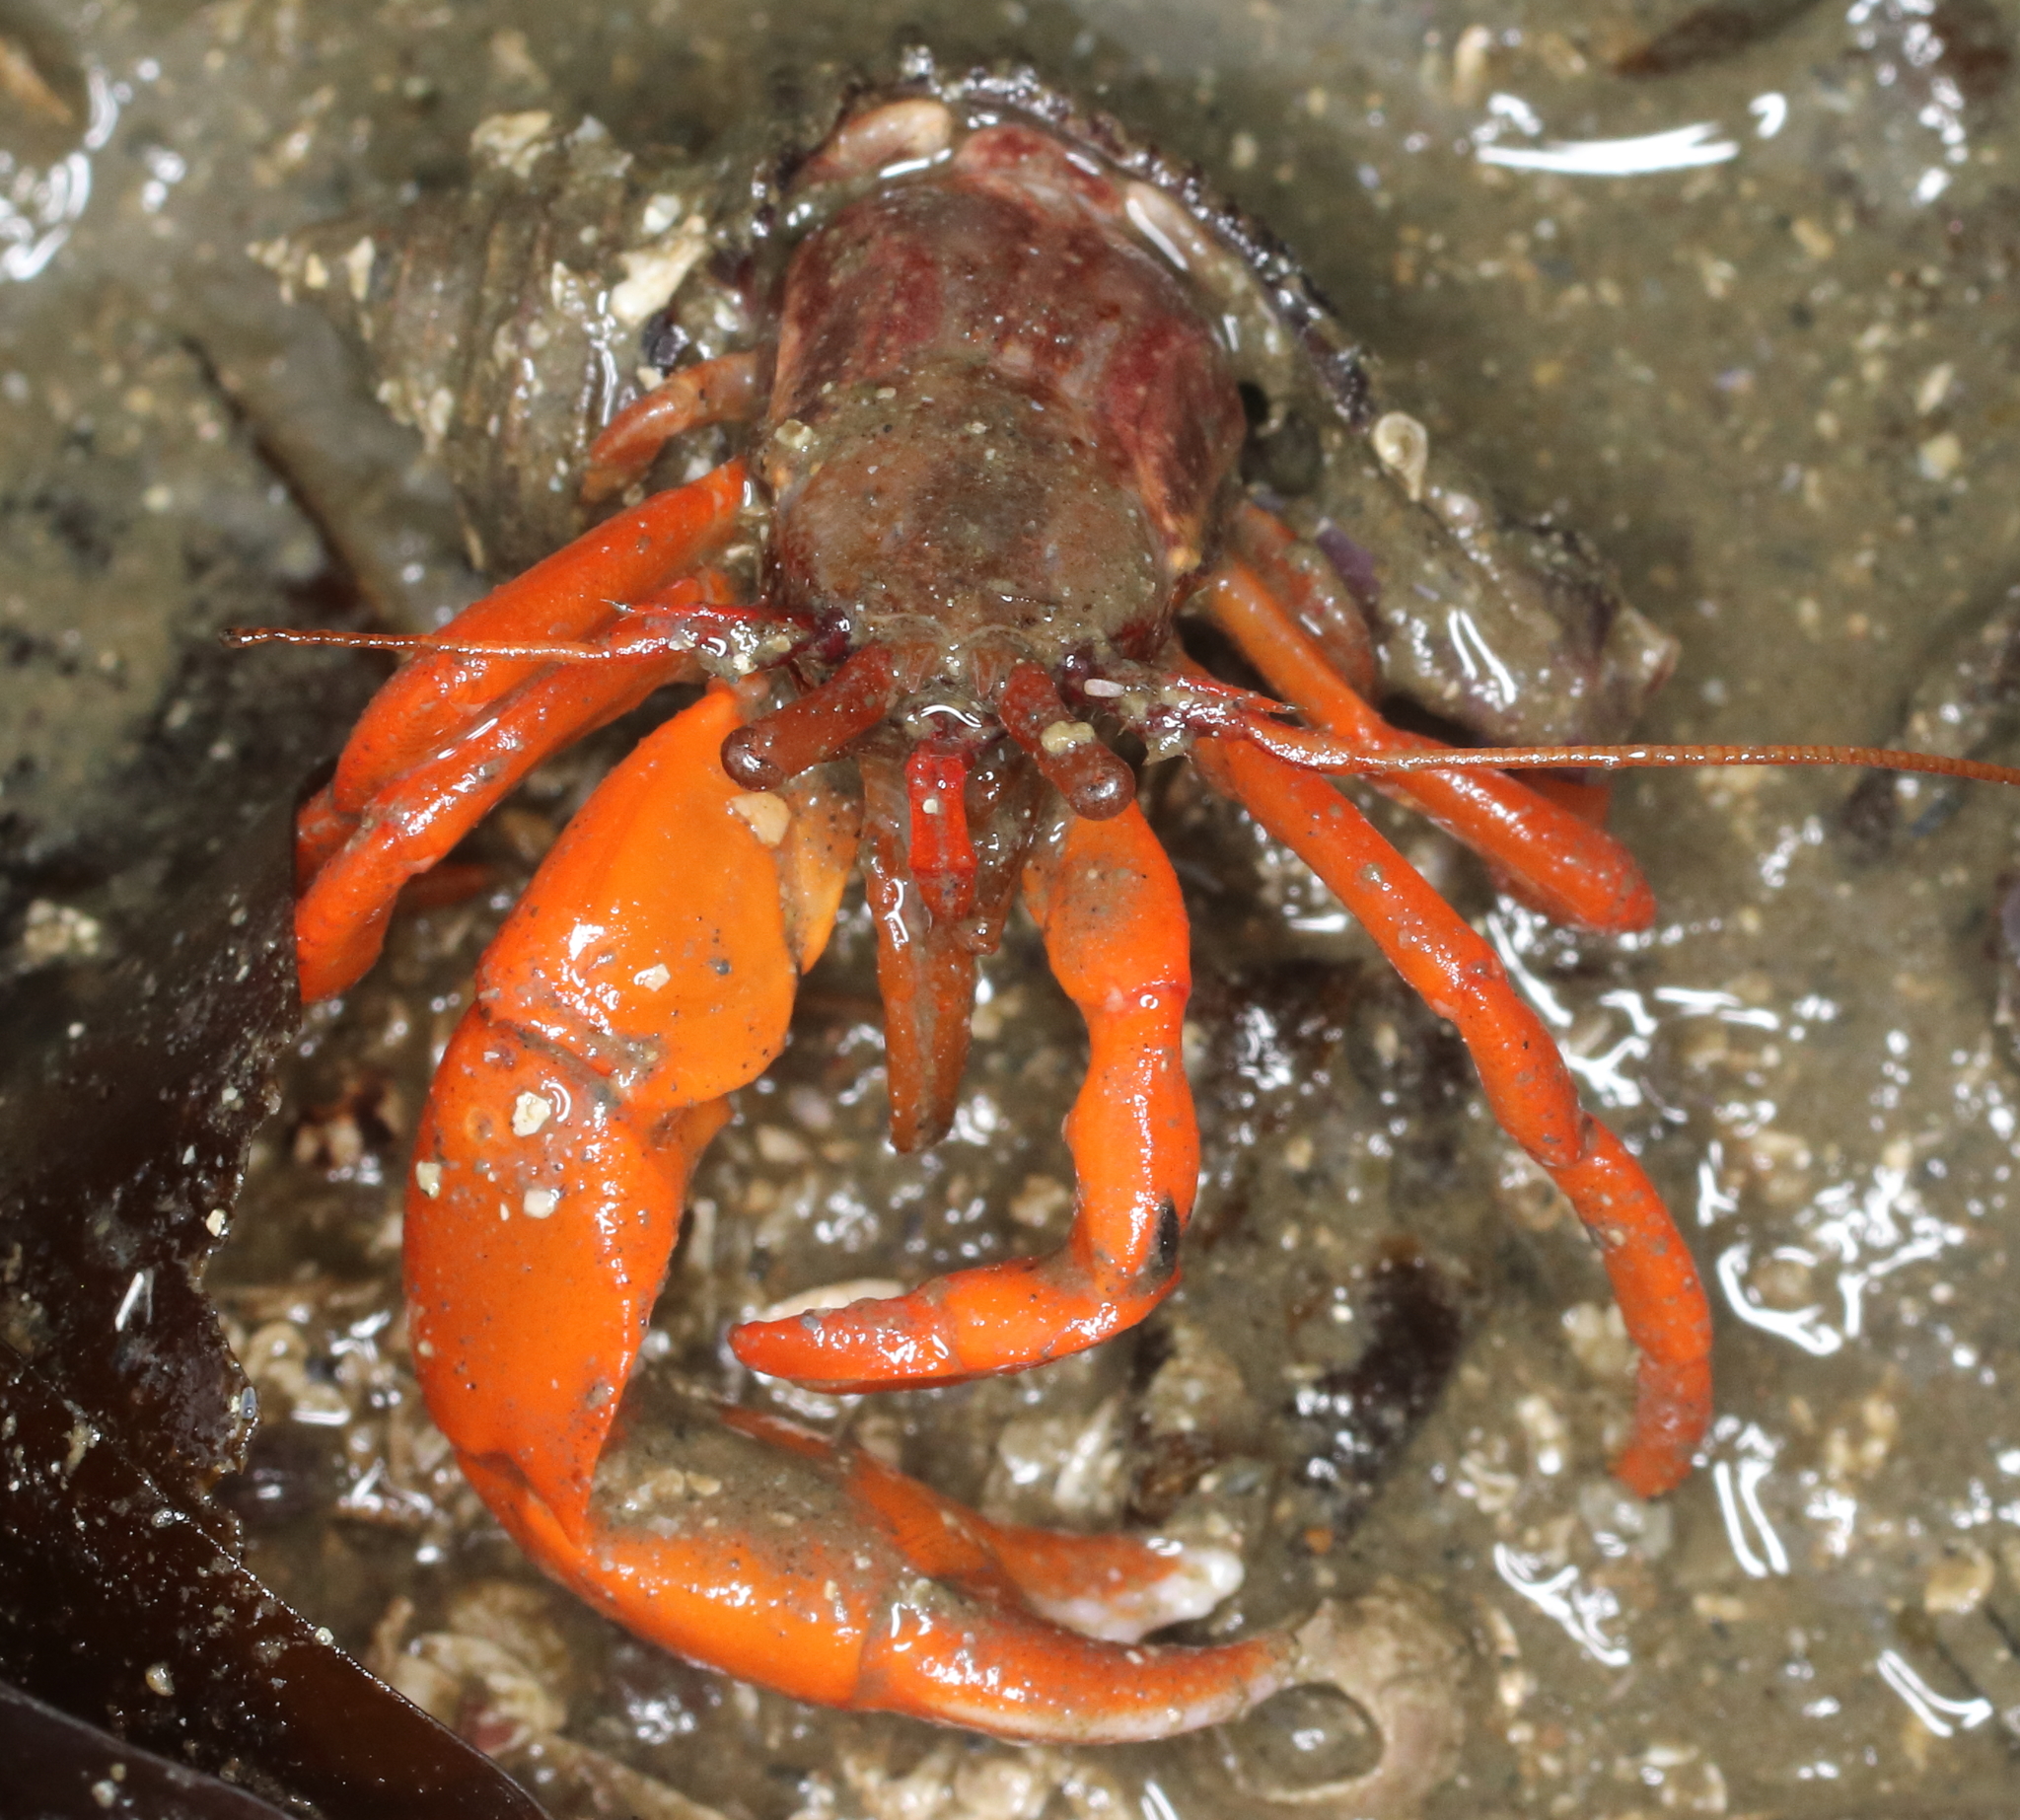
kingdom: Animalia
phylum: Arthropoda
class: Malacostraca
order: Decapoda
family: Paguridae
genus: Elassochirus
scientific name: Elassochirus gilli
